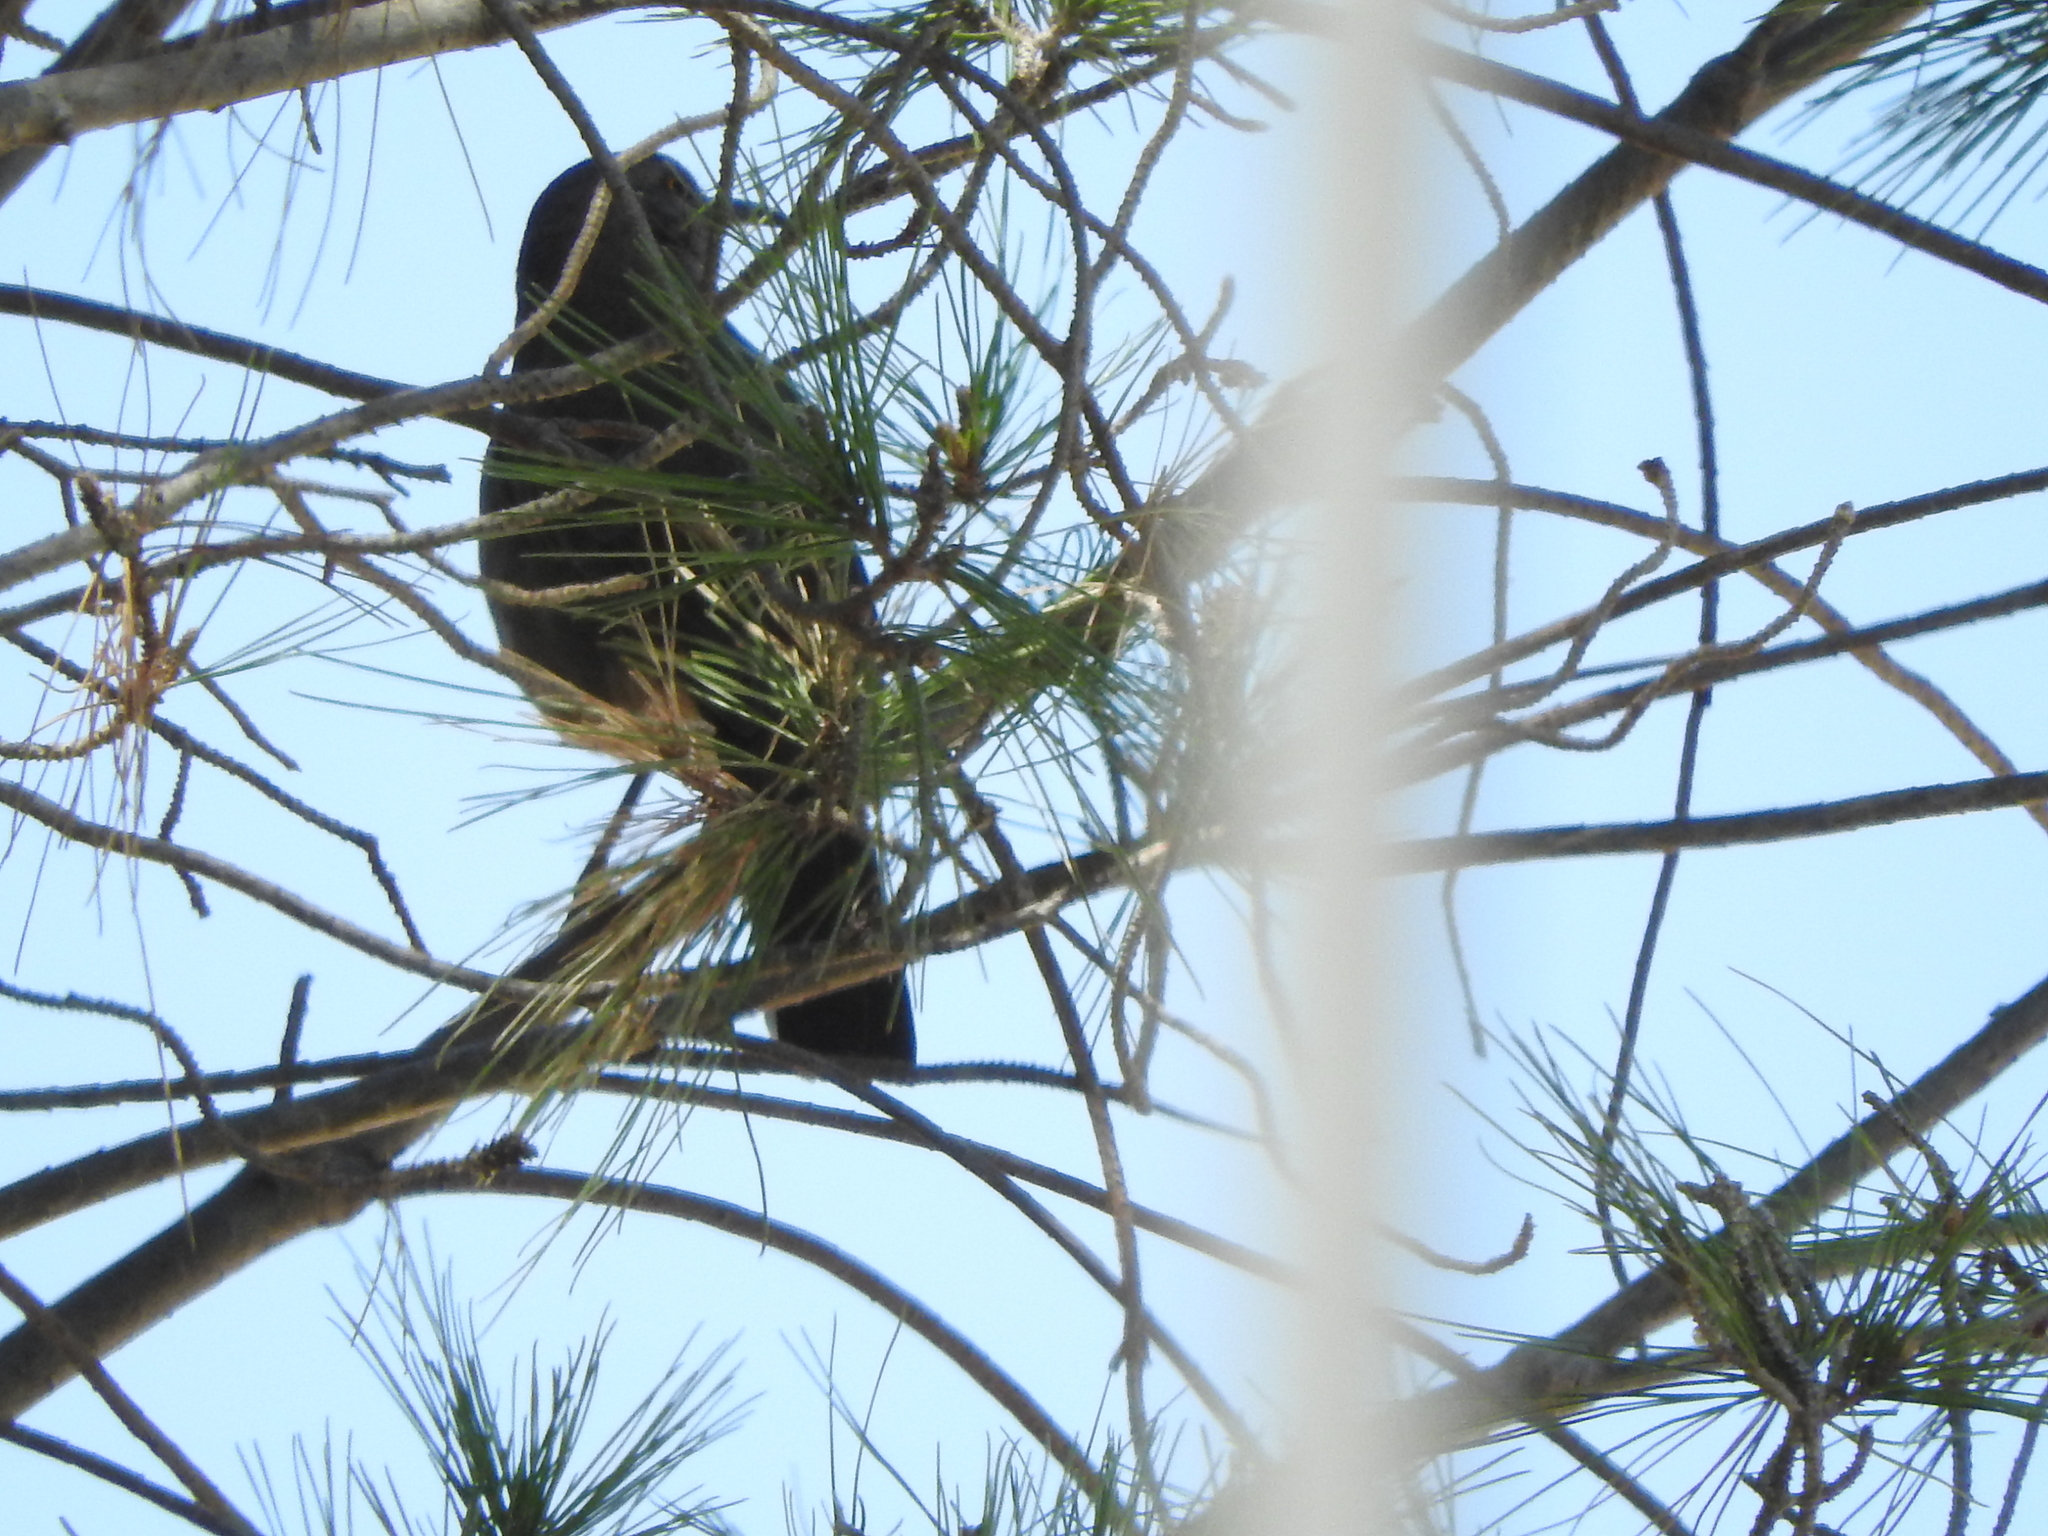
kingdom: Animalia
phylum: Chordata
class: Aves
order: Passeriformes
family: Mimidae
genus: Toxostoma
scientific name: Toxostoma curvirostre
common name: Curve-billed thrasher
